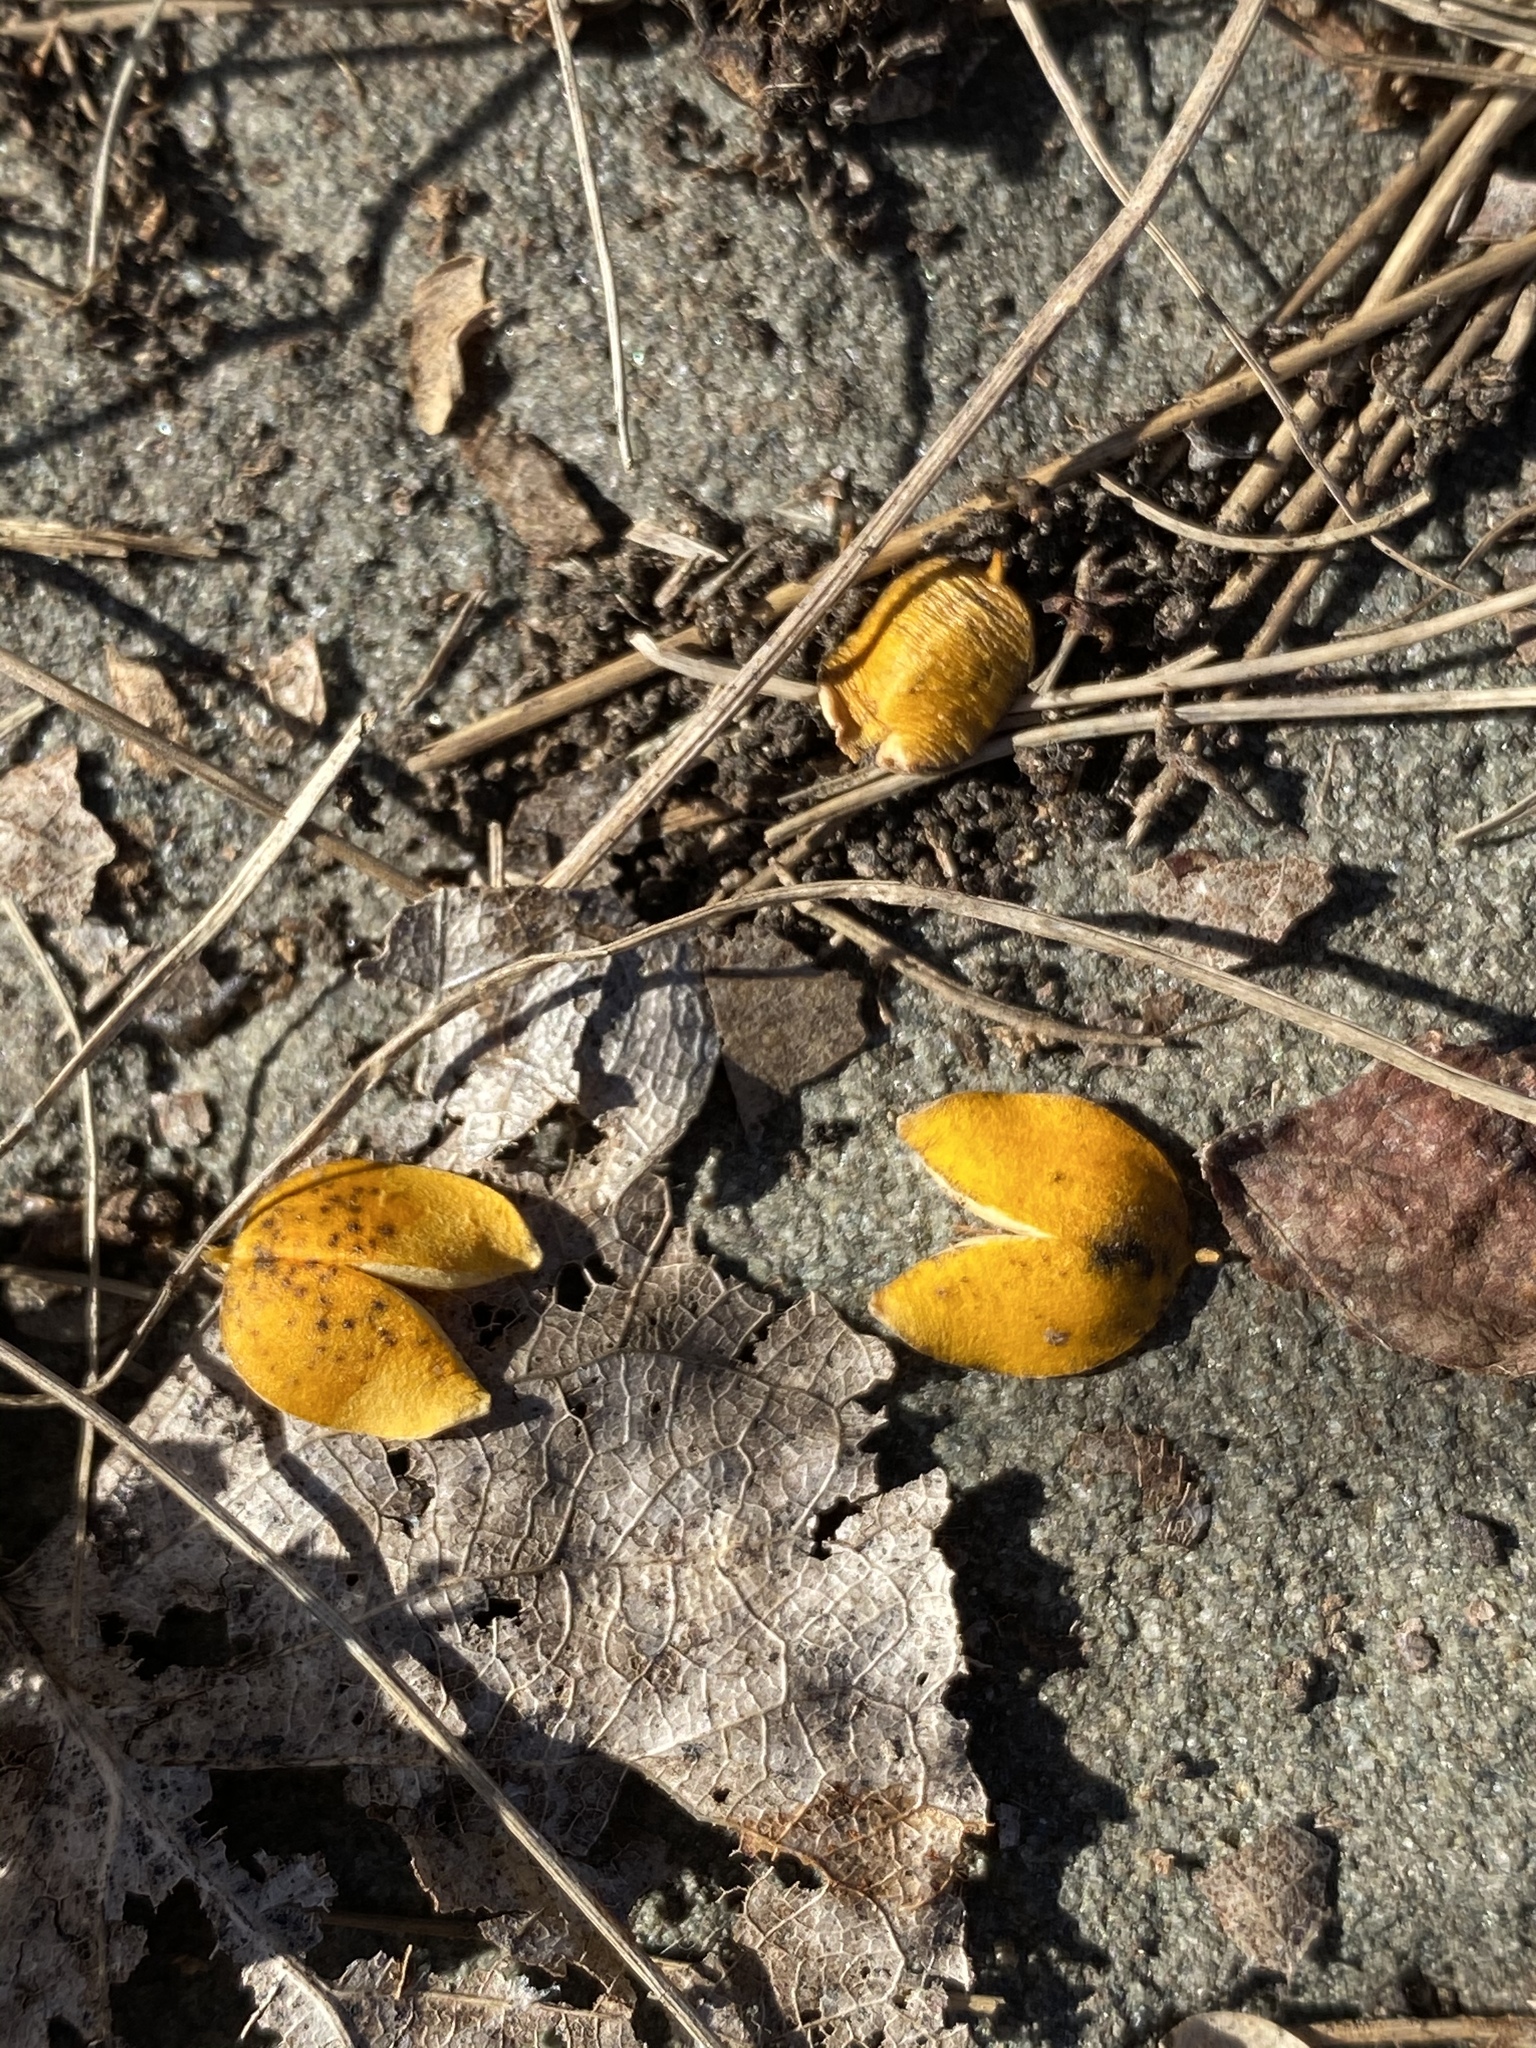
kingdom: Plantae
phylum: Tracheophyta
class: Magnoliopsida
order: Celastrales
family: Celastraceae
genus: Celastrus
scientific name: Celastrus orbiculatus
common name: Oriental bittersweet
